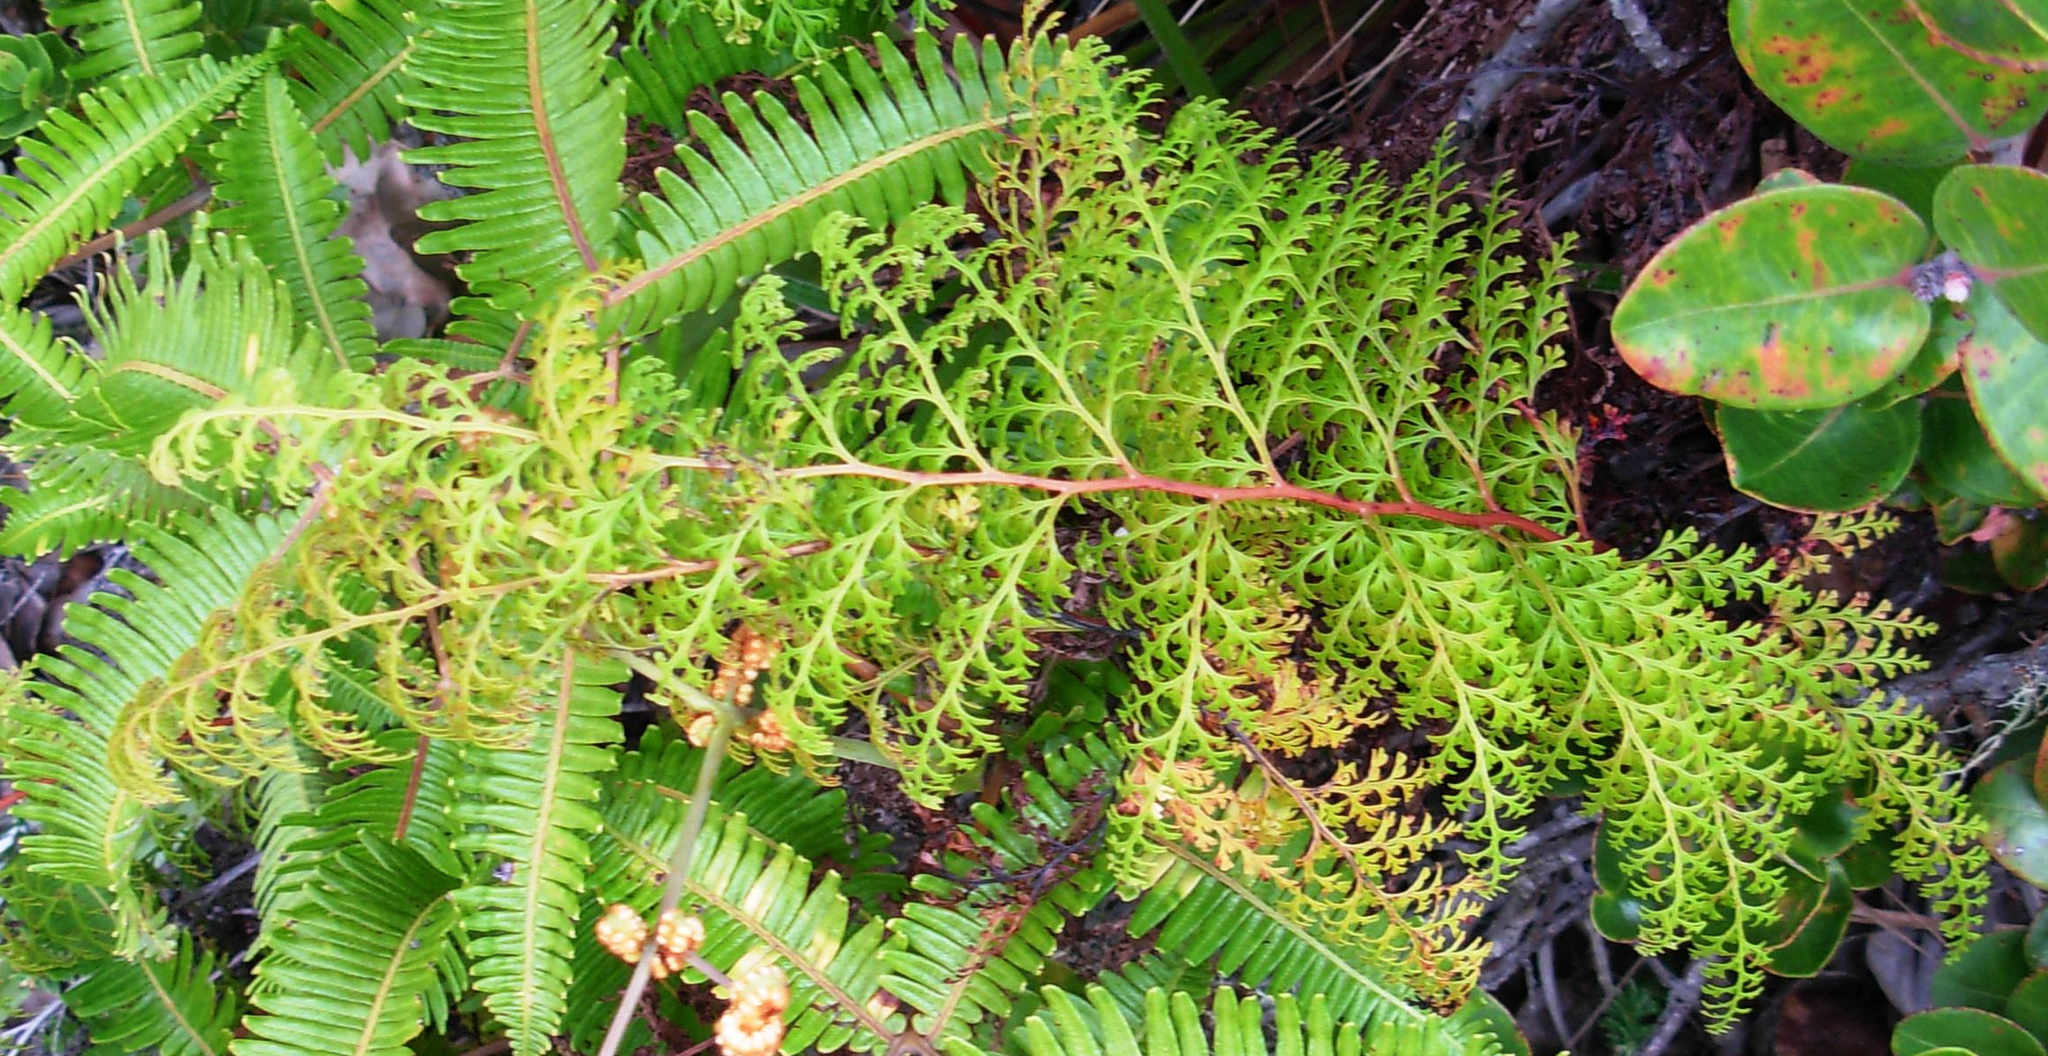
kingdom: Plantae
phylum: Tracheophyta
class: Polypodiopsida
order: Polypodiales
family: Lindsaeaceae
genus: Odontosoria
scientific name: Odontosoria chinensis
